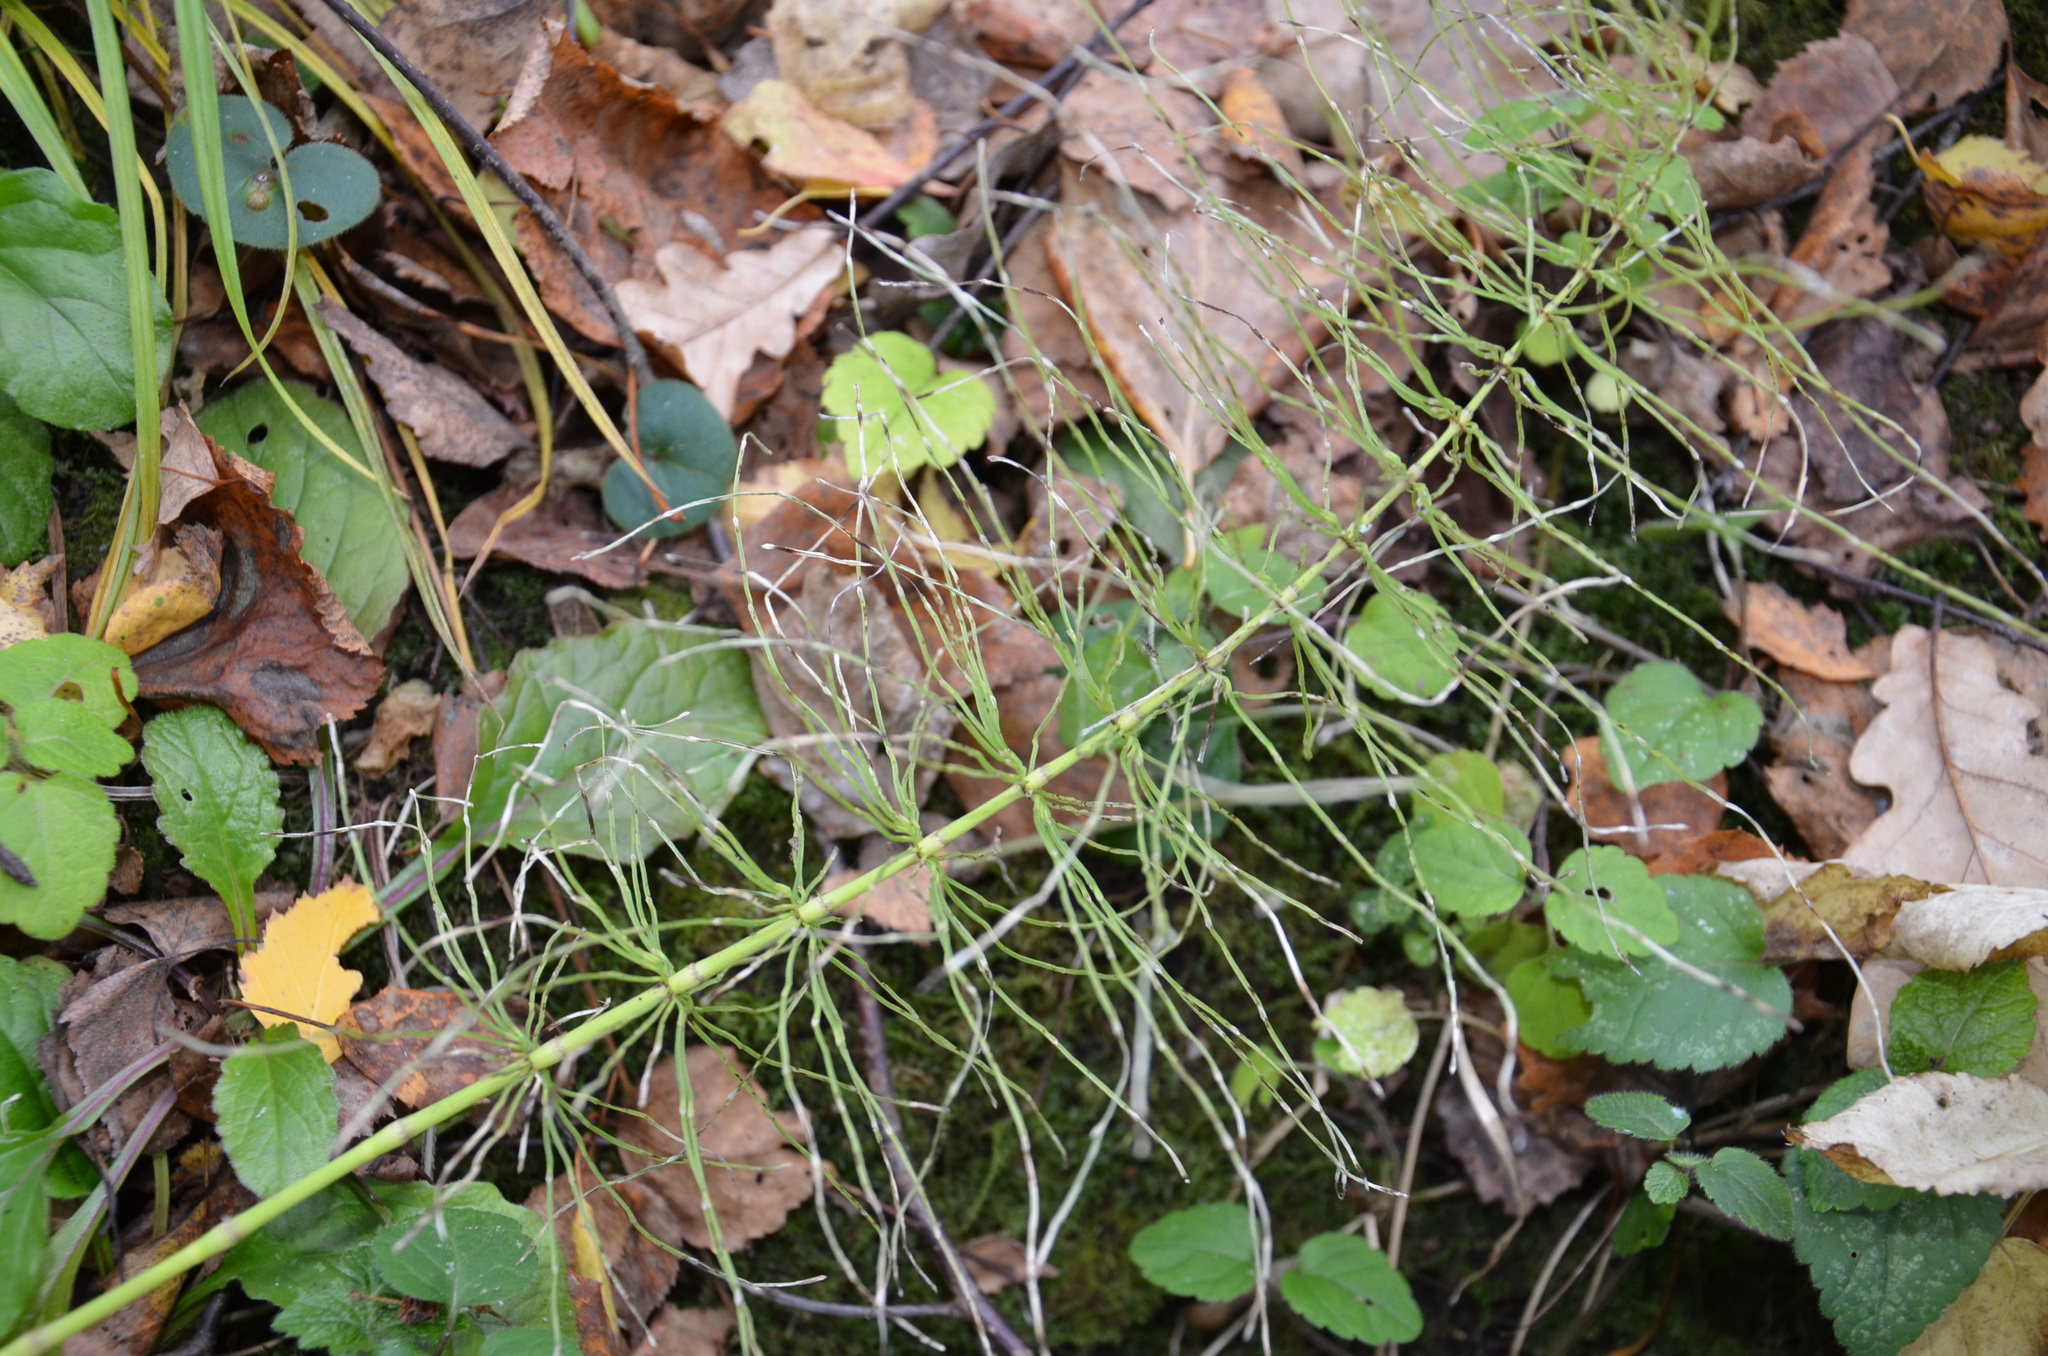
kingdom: Plantae
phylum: Tracheophyta
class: Polypodiopsida
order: Equisetales
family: Equisetaceae
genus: Equisetum
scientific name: Equisetum pratense
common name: Meadow horsetail
